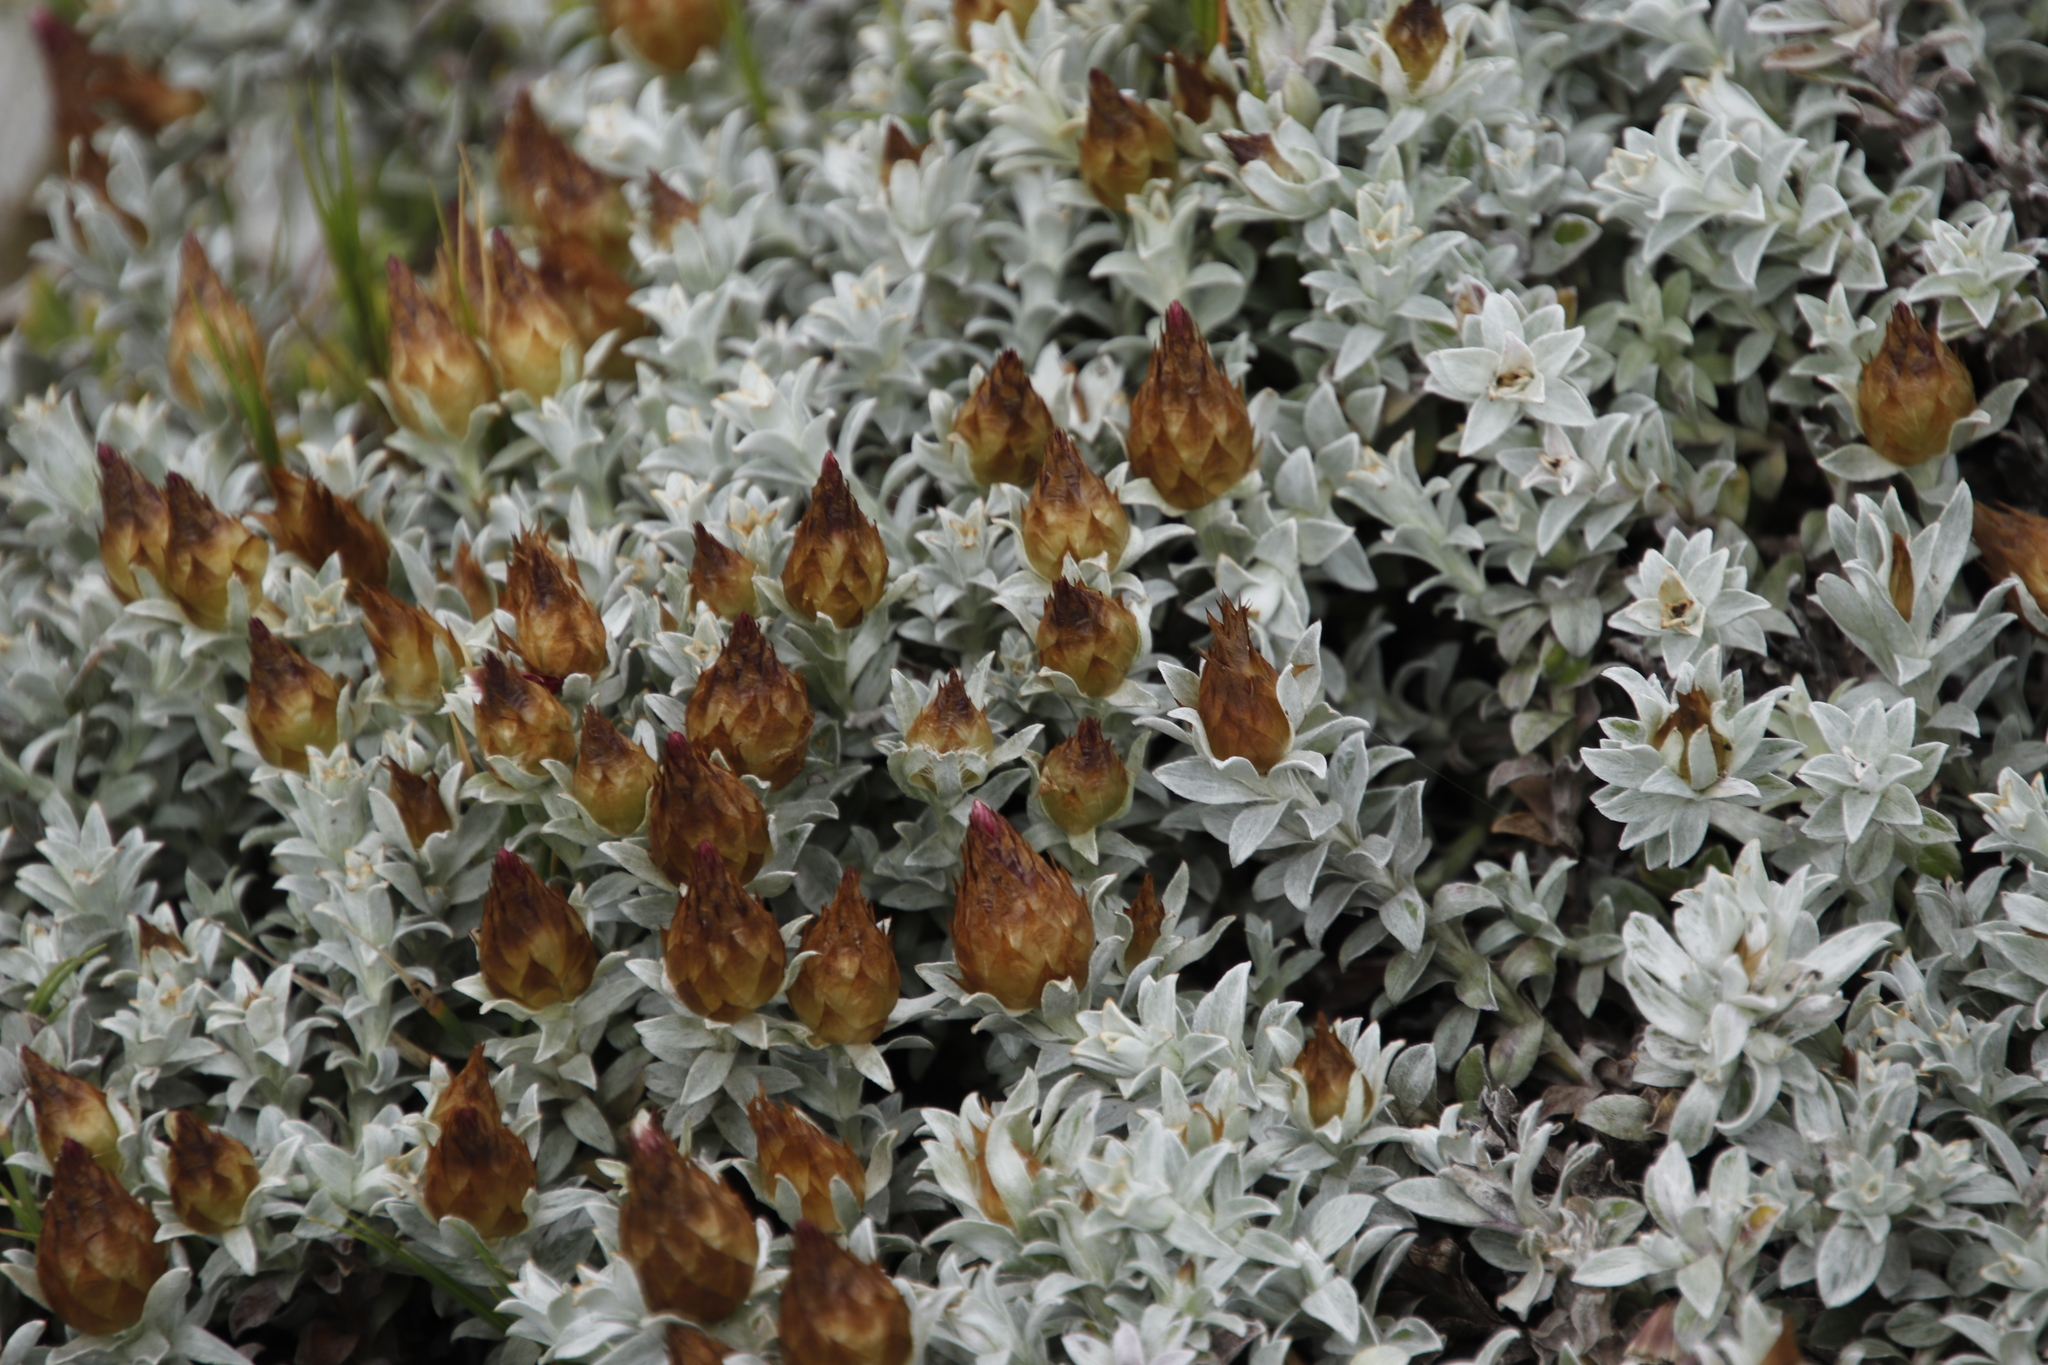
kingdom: Plantae
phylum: Tracheophyta
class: Magnoliopsida
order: Asterales
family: Asteraceae
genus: Helichrysum
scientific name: Helichrysum retortum
